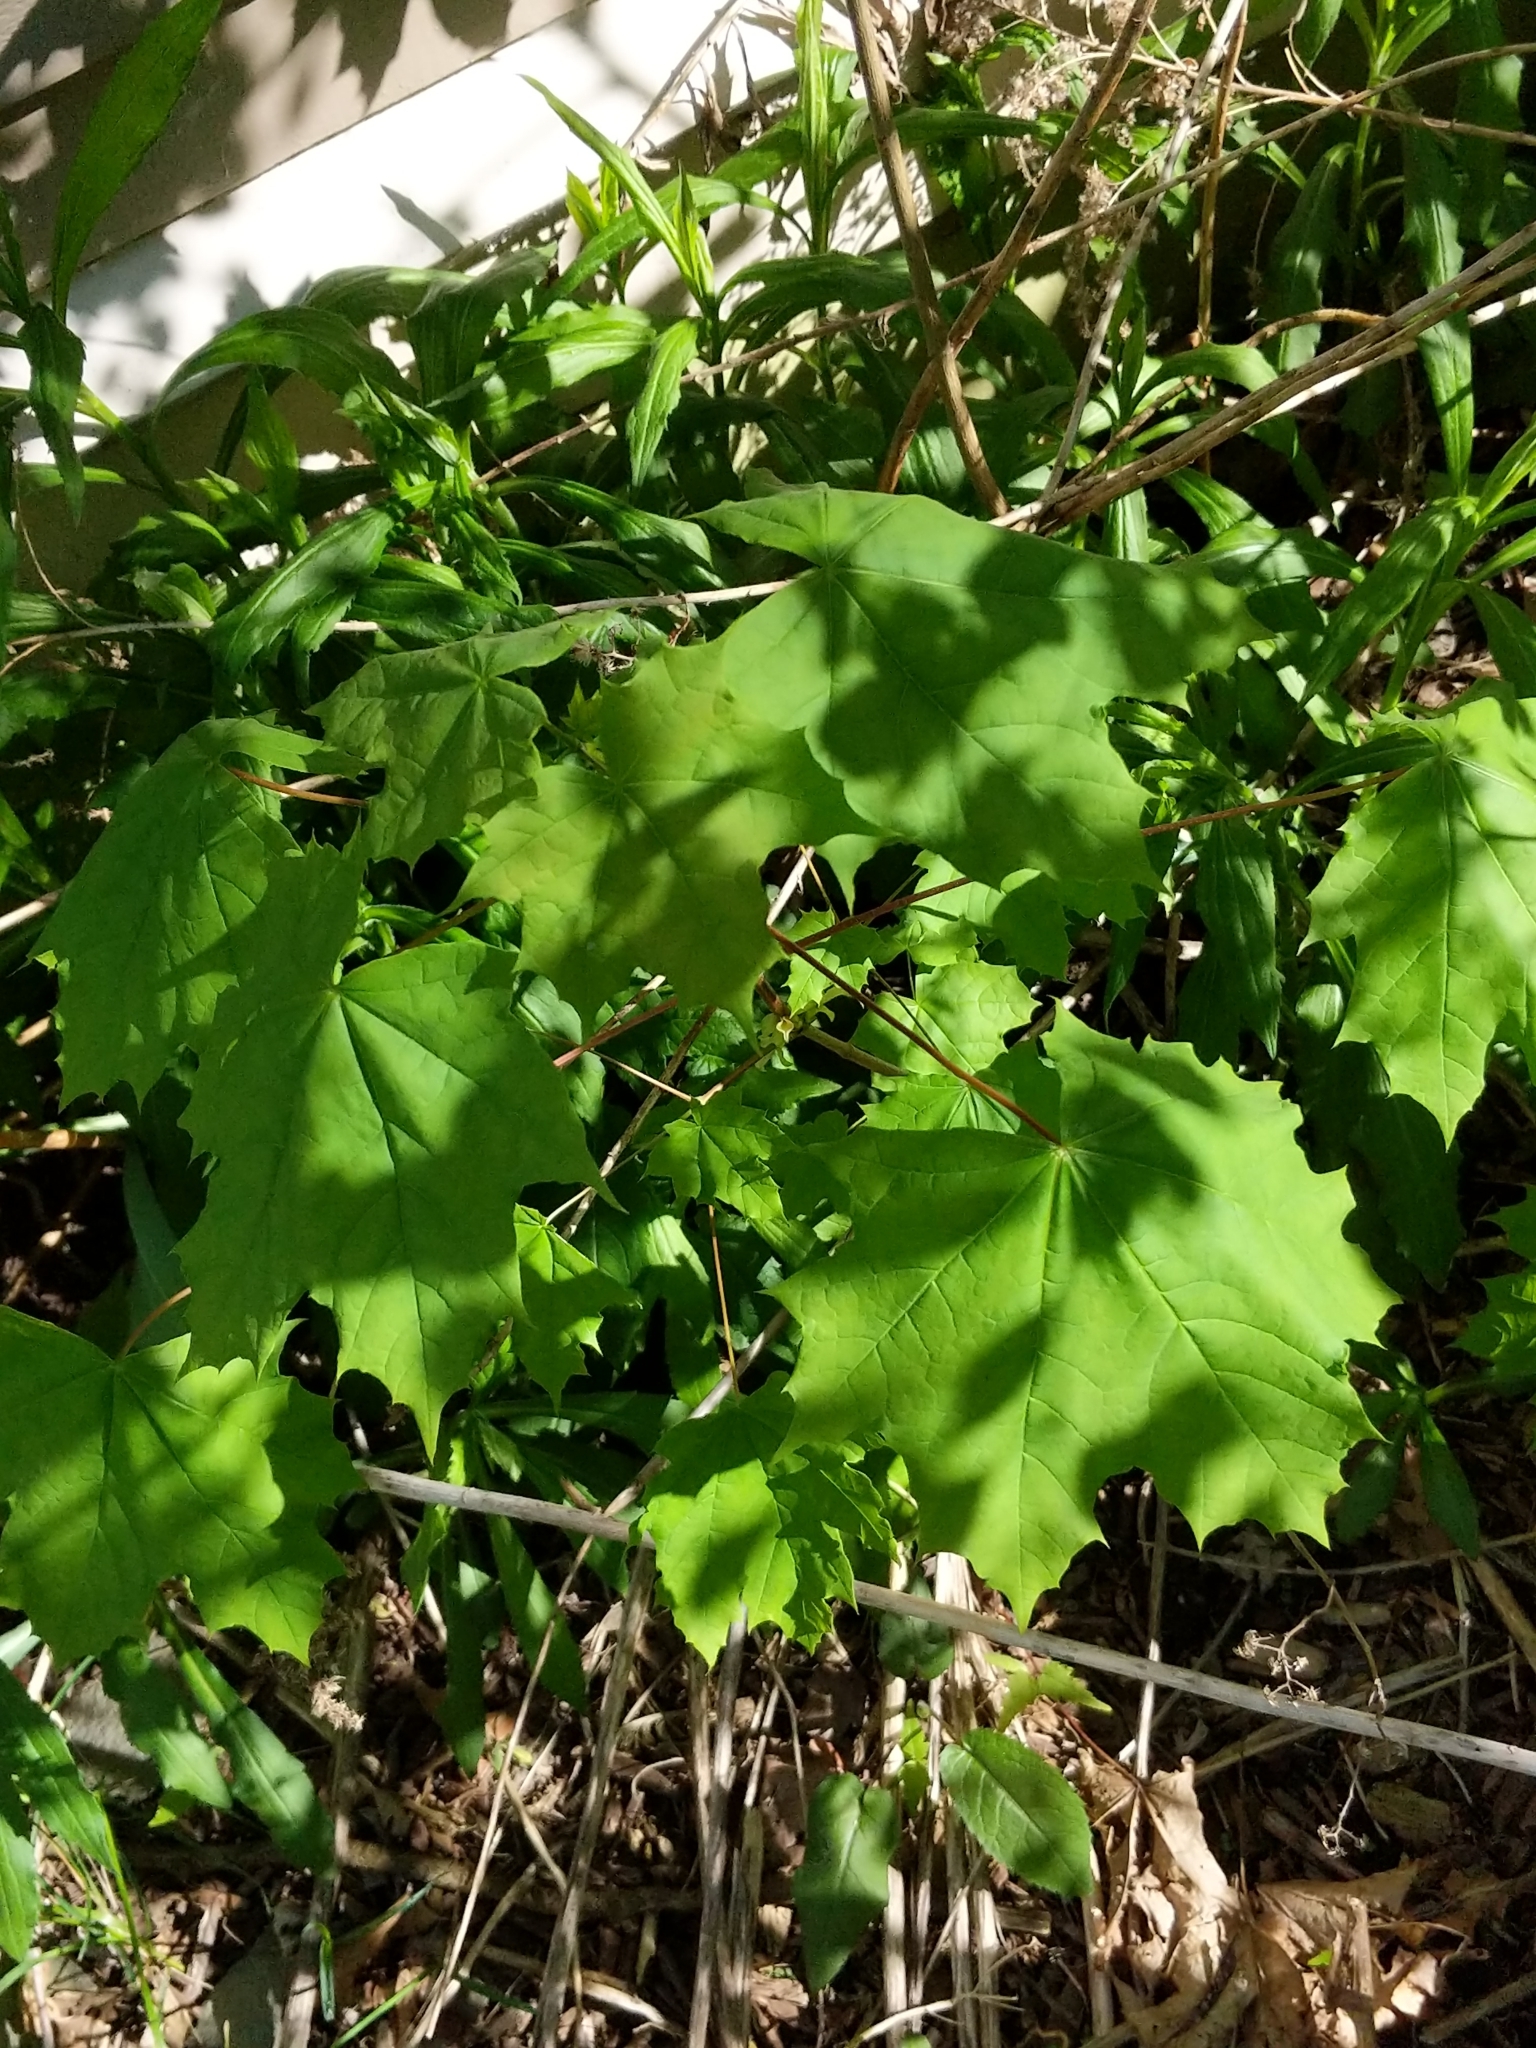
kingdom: Plantae
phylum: Tracheophyta
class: Magnoliopsida
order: Sapindales
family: Sapindaceae
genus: Acer
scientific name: Acer platanoides
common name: Norway maple
